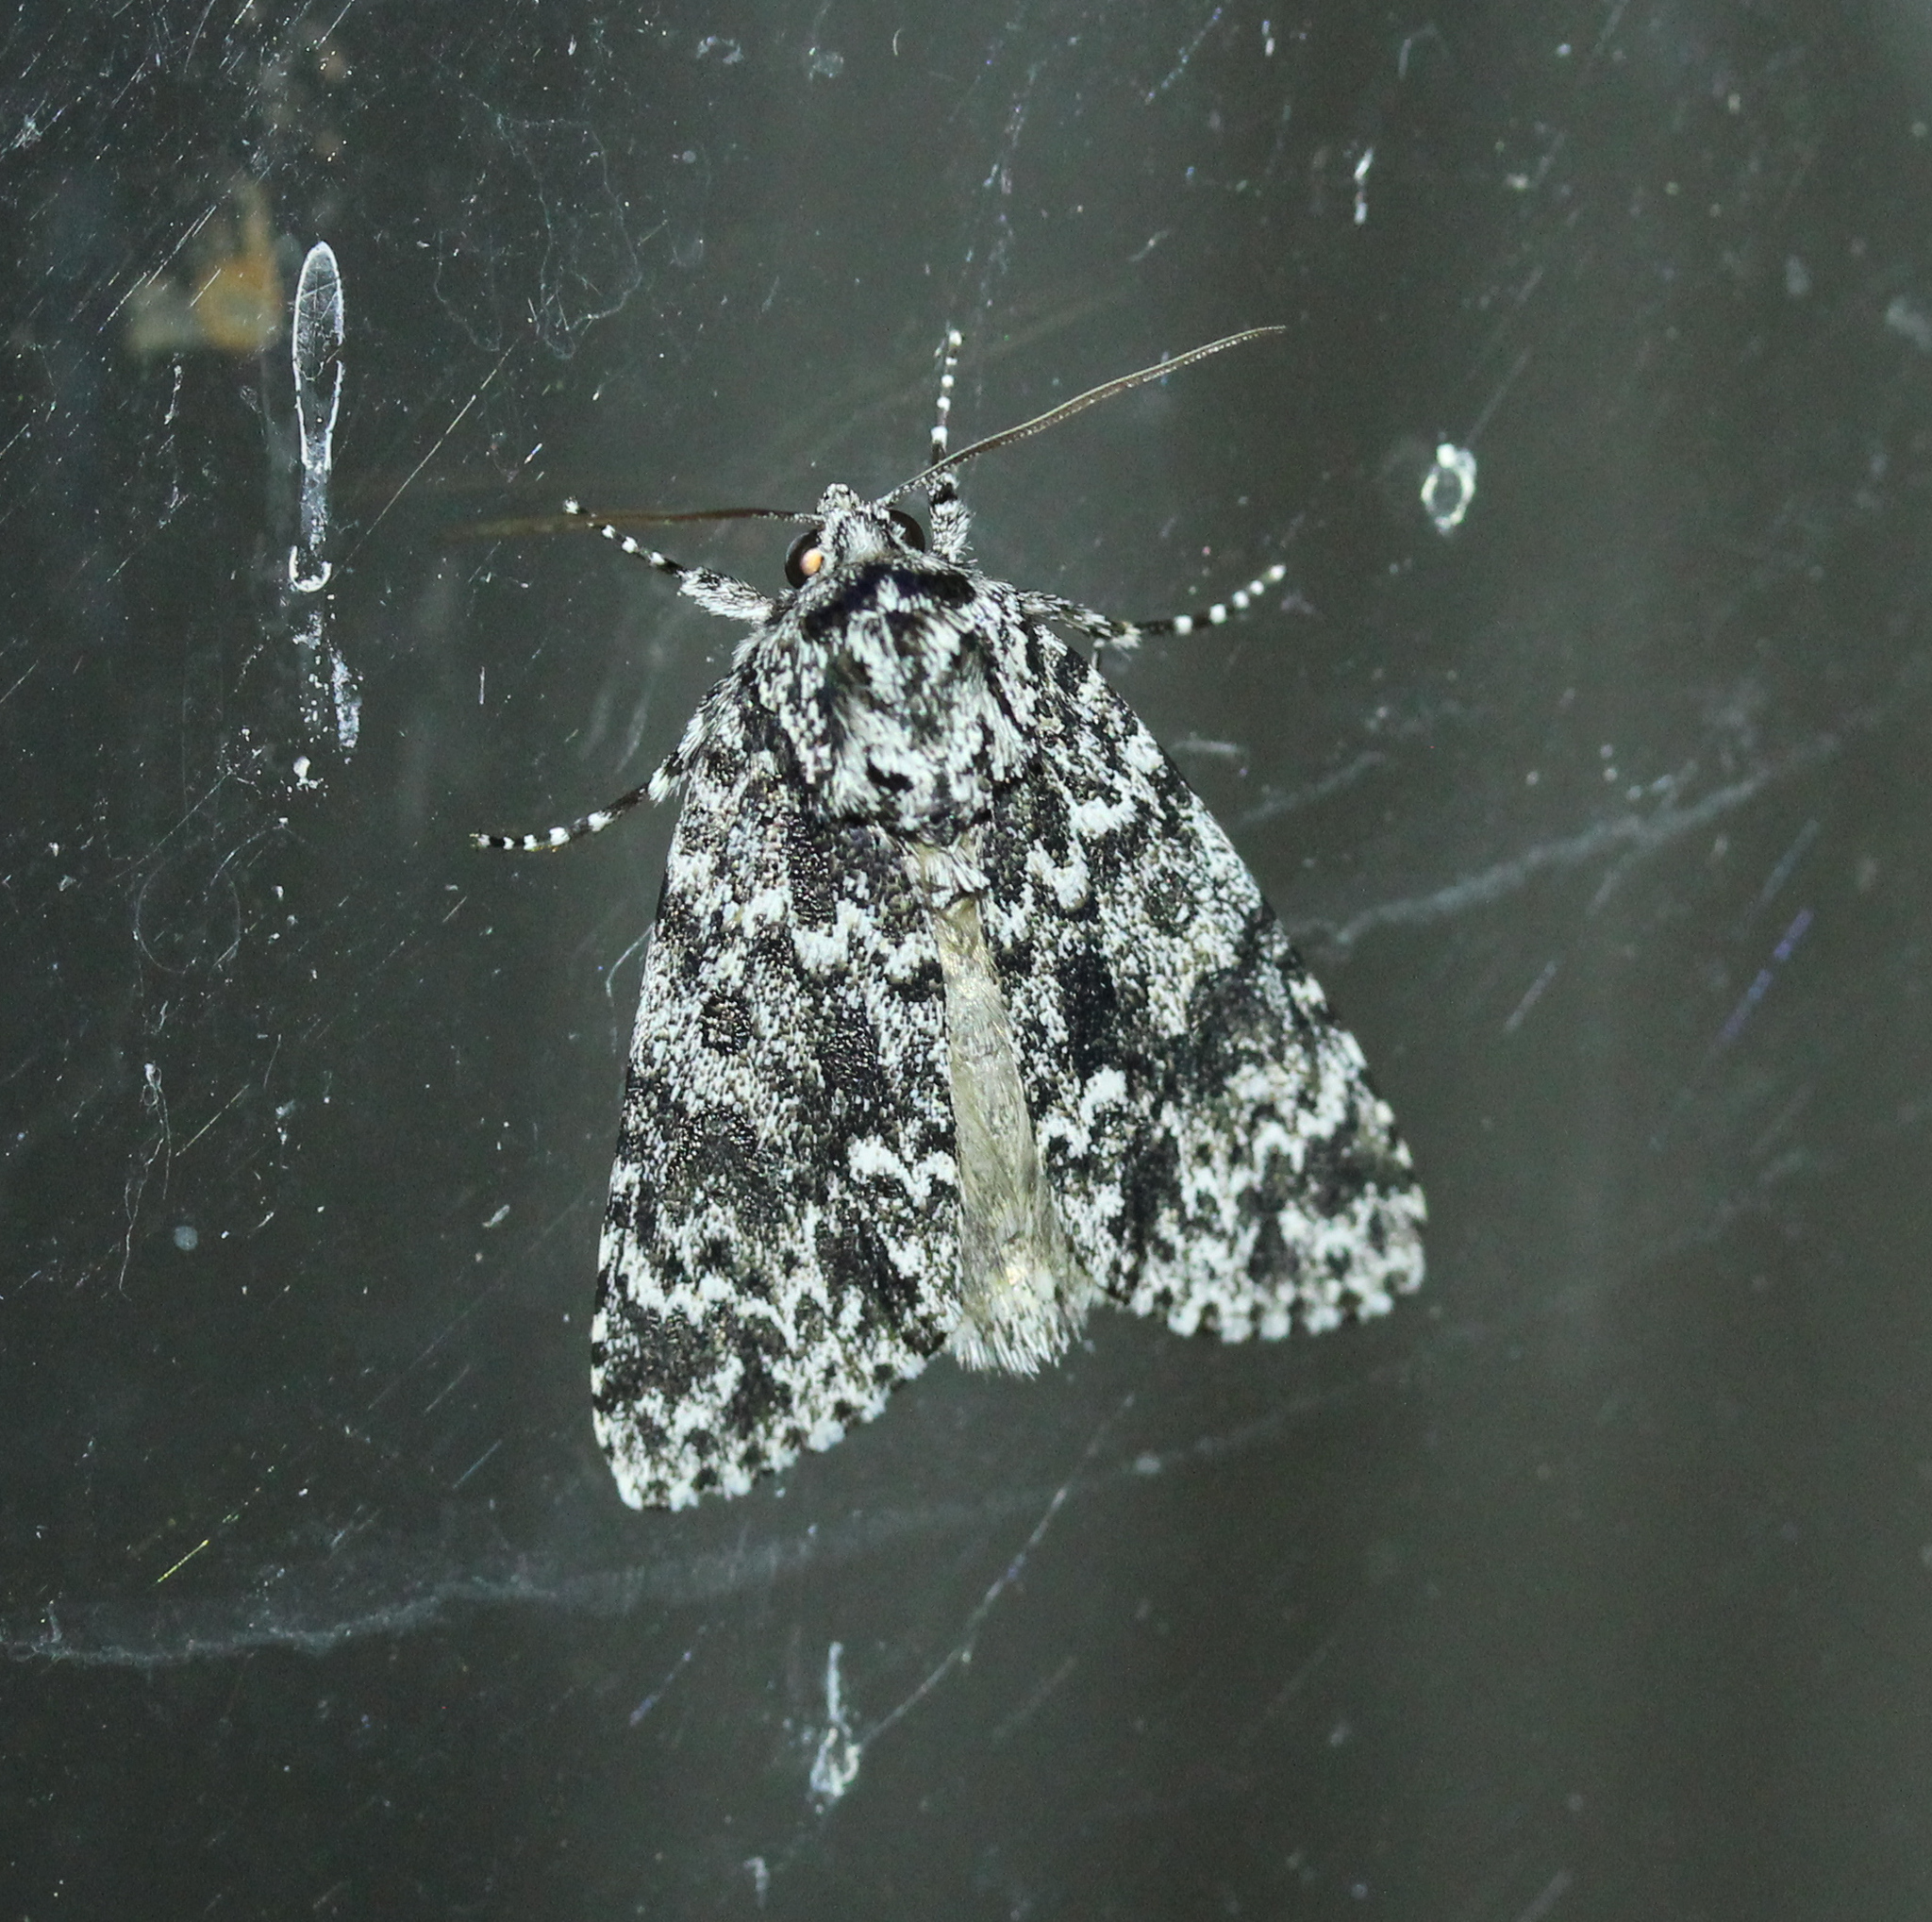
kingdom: Animalia
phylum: Arthropoda
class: Insecta
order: Lepidoptera
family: Noctuidae
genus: Acronicta
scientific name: Acronicta noctivaga
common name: Night-wandering dagger
